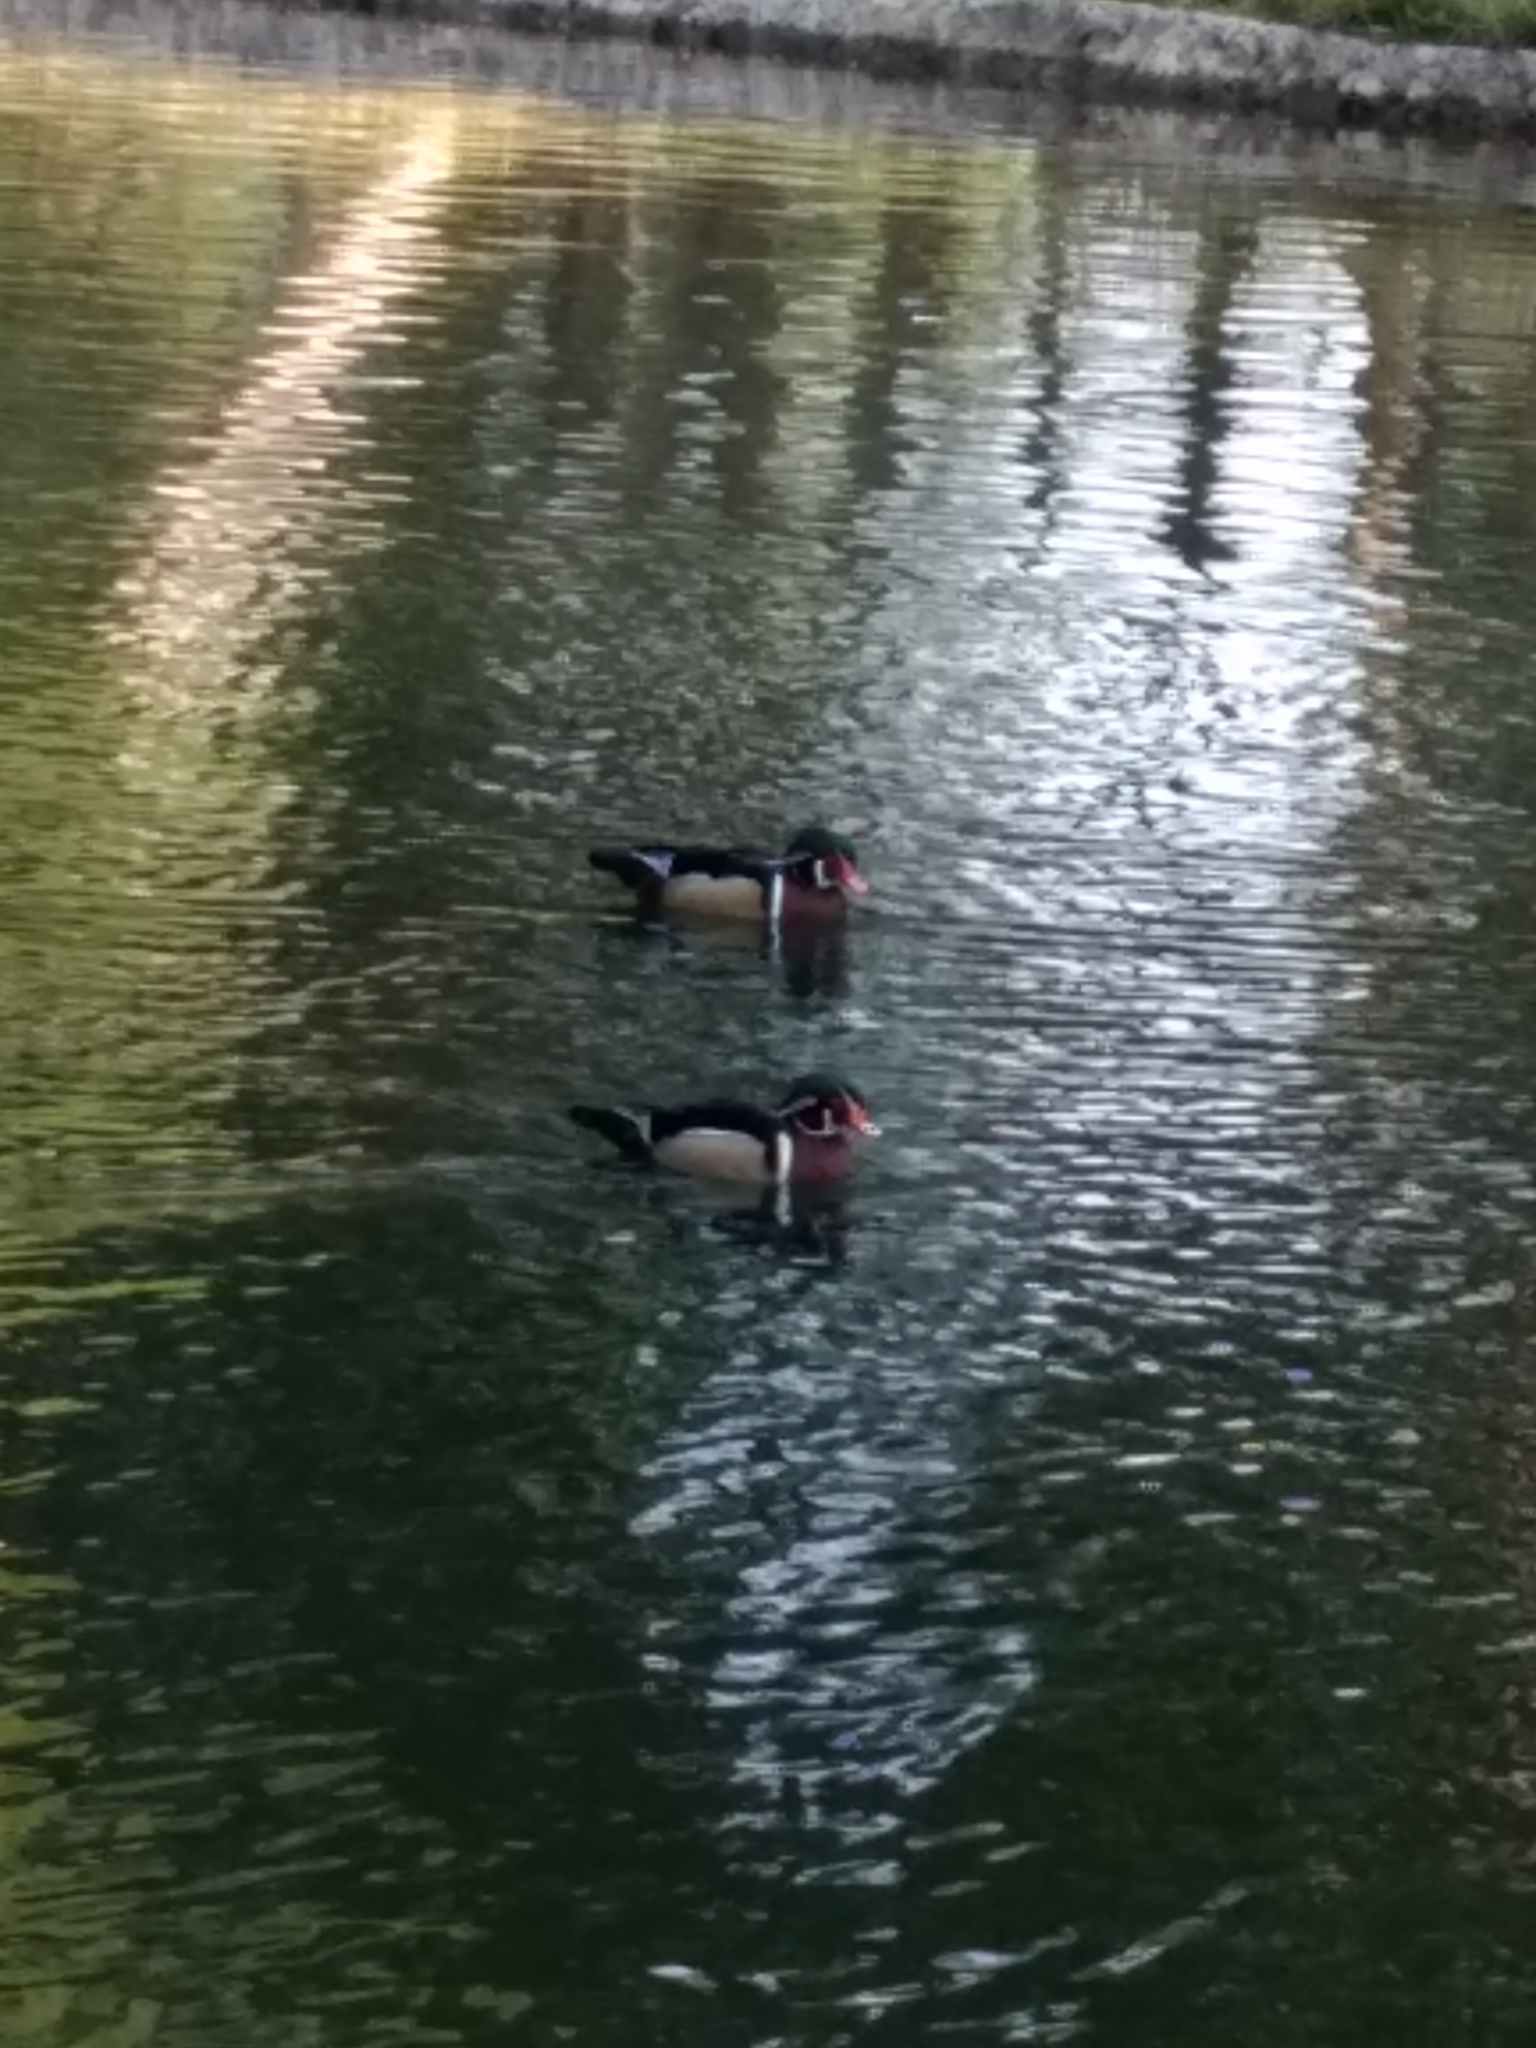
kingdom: Animalia
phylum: Chordata
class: Aves
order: Anseriformes
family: Anatidae
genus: Aix
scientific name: Aix sponsa
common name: Wood duck
